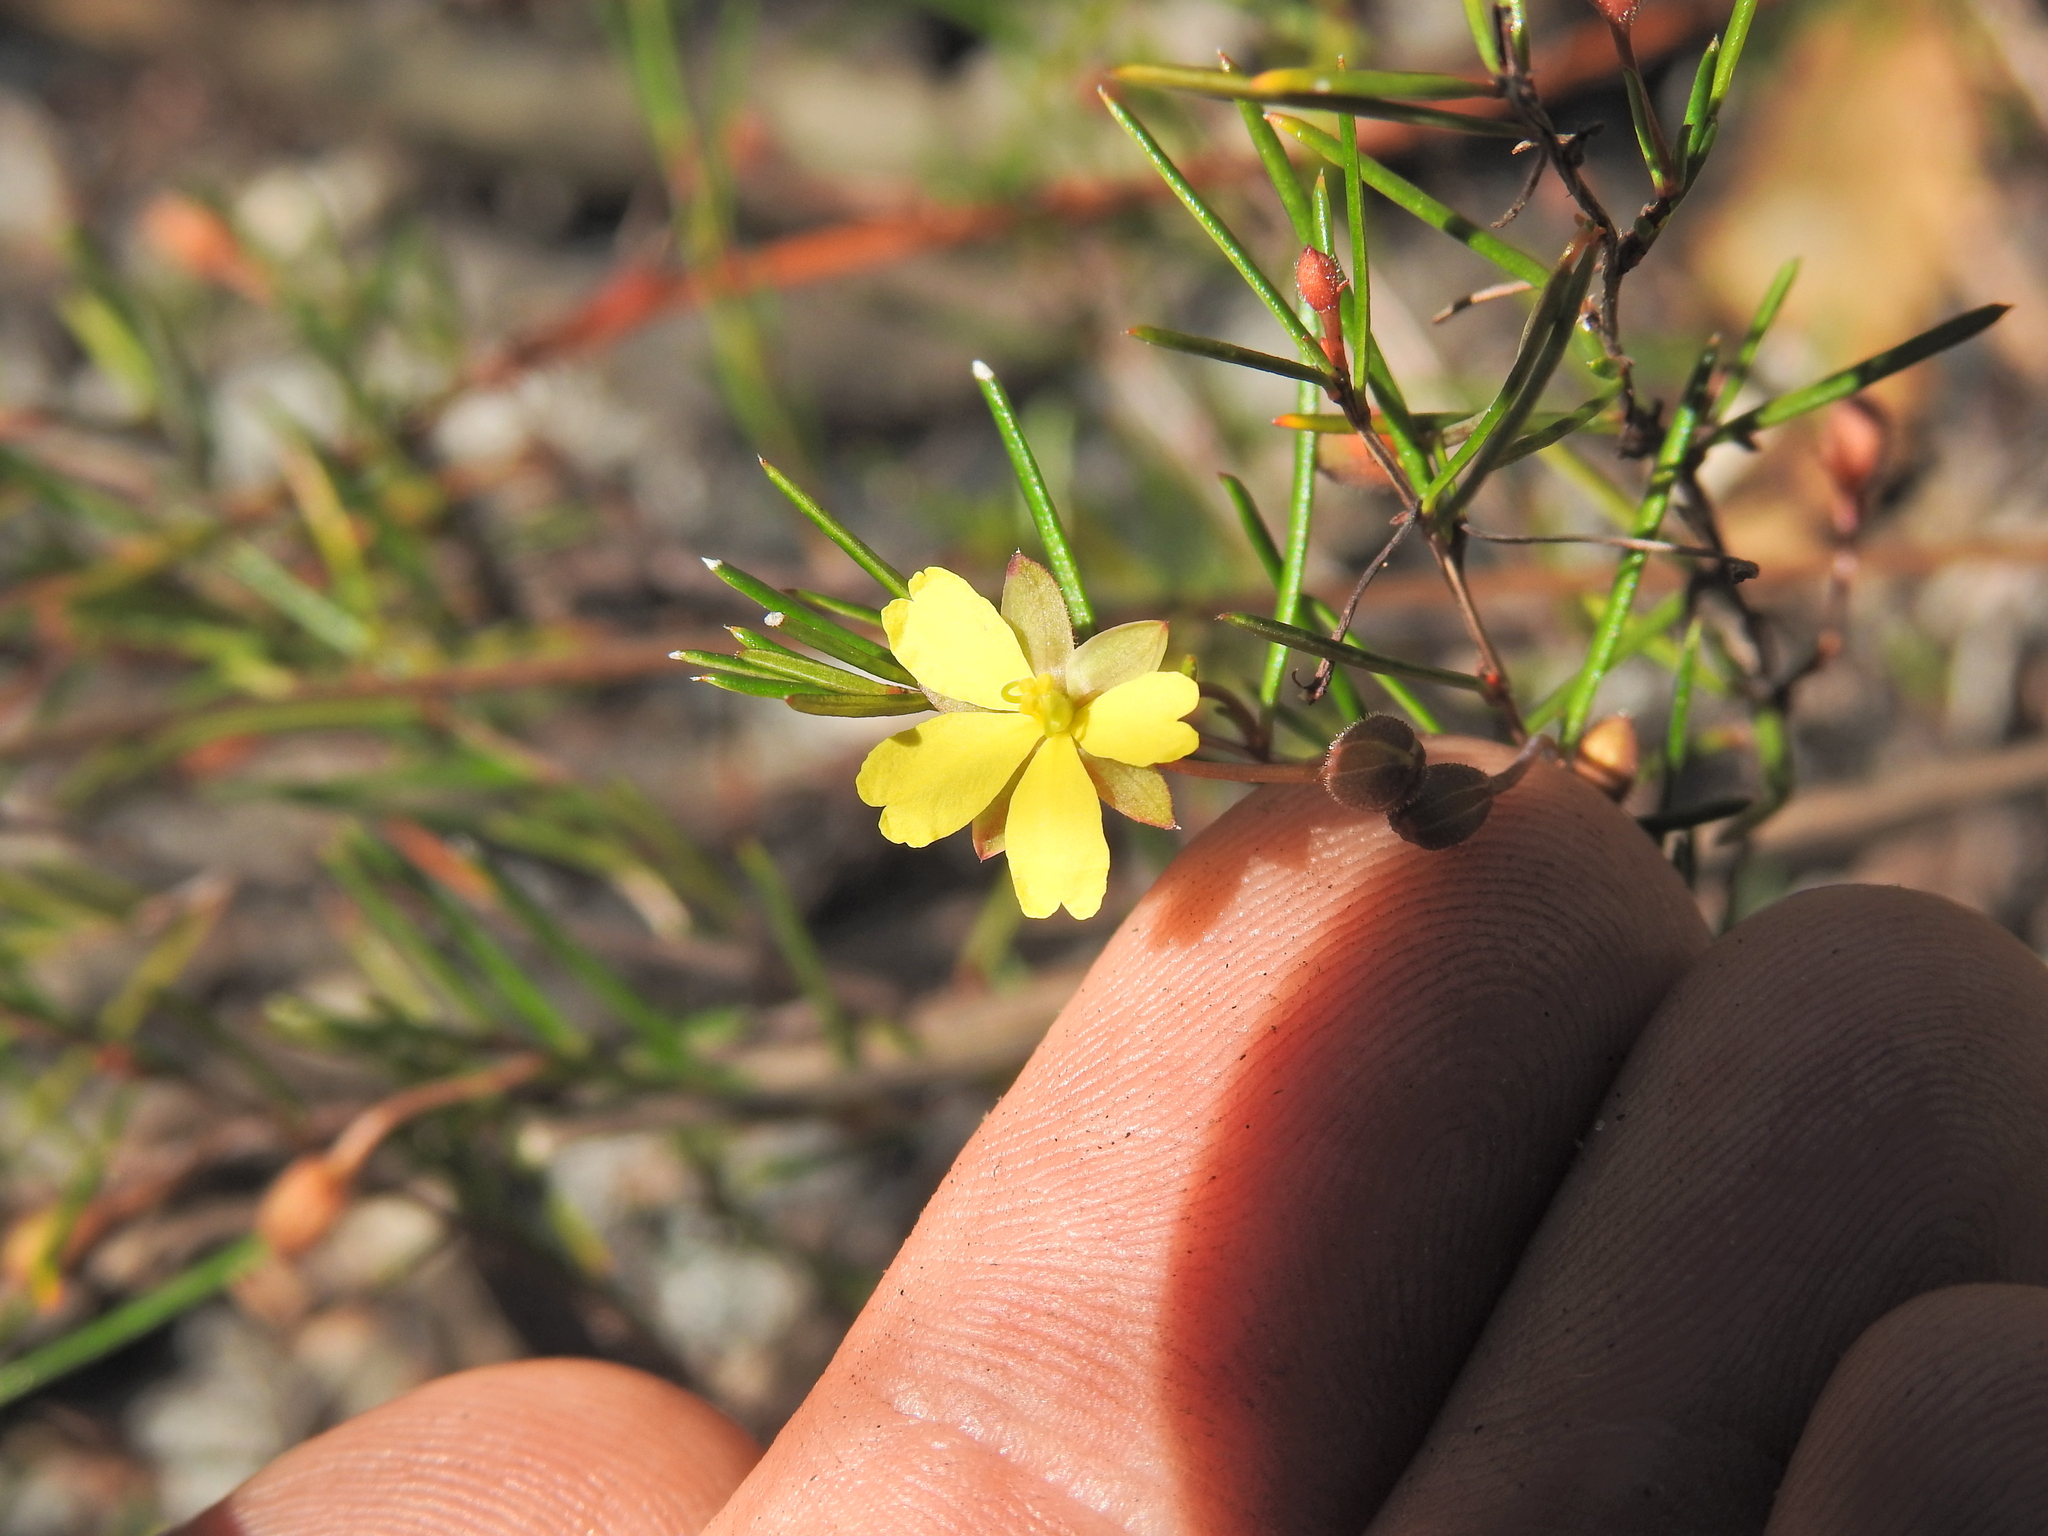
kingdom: Plantae
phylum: Tracheophyta
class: Magnoliopsida
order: Dilleniales
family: Dilleniaceae
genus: Hibbertia
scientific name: Hibbertia miniata
